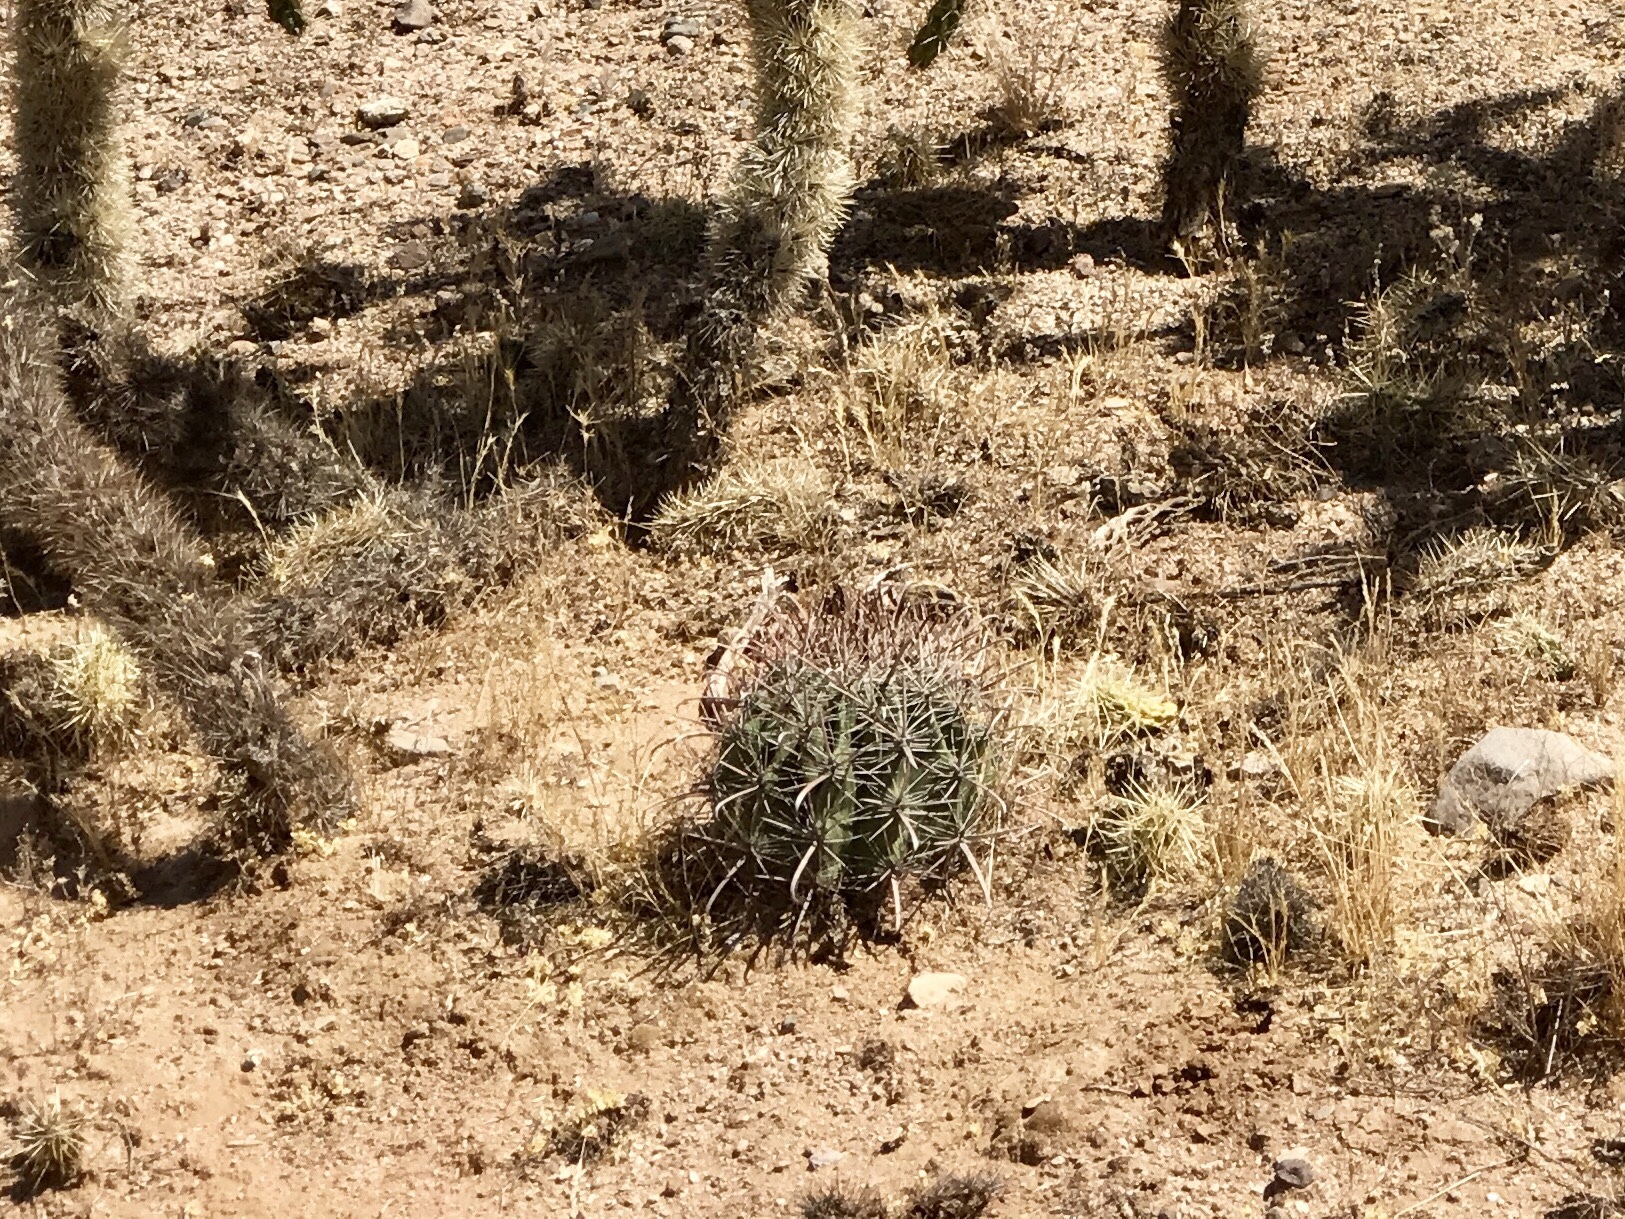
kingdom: Plantae
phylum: Tracheophyta
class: Magnoliopsida
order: Caryophyllales
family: Cactaceae
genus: Ferocactus
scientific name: Ferocactus wislizeni
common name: Candy barrel cactus
